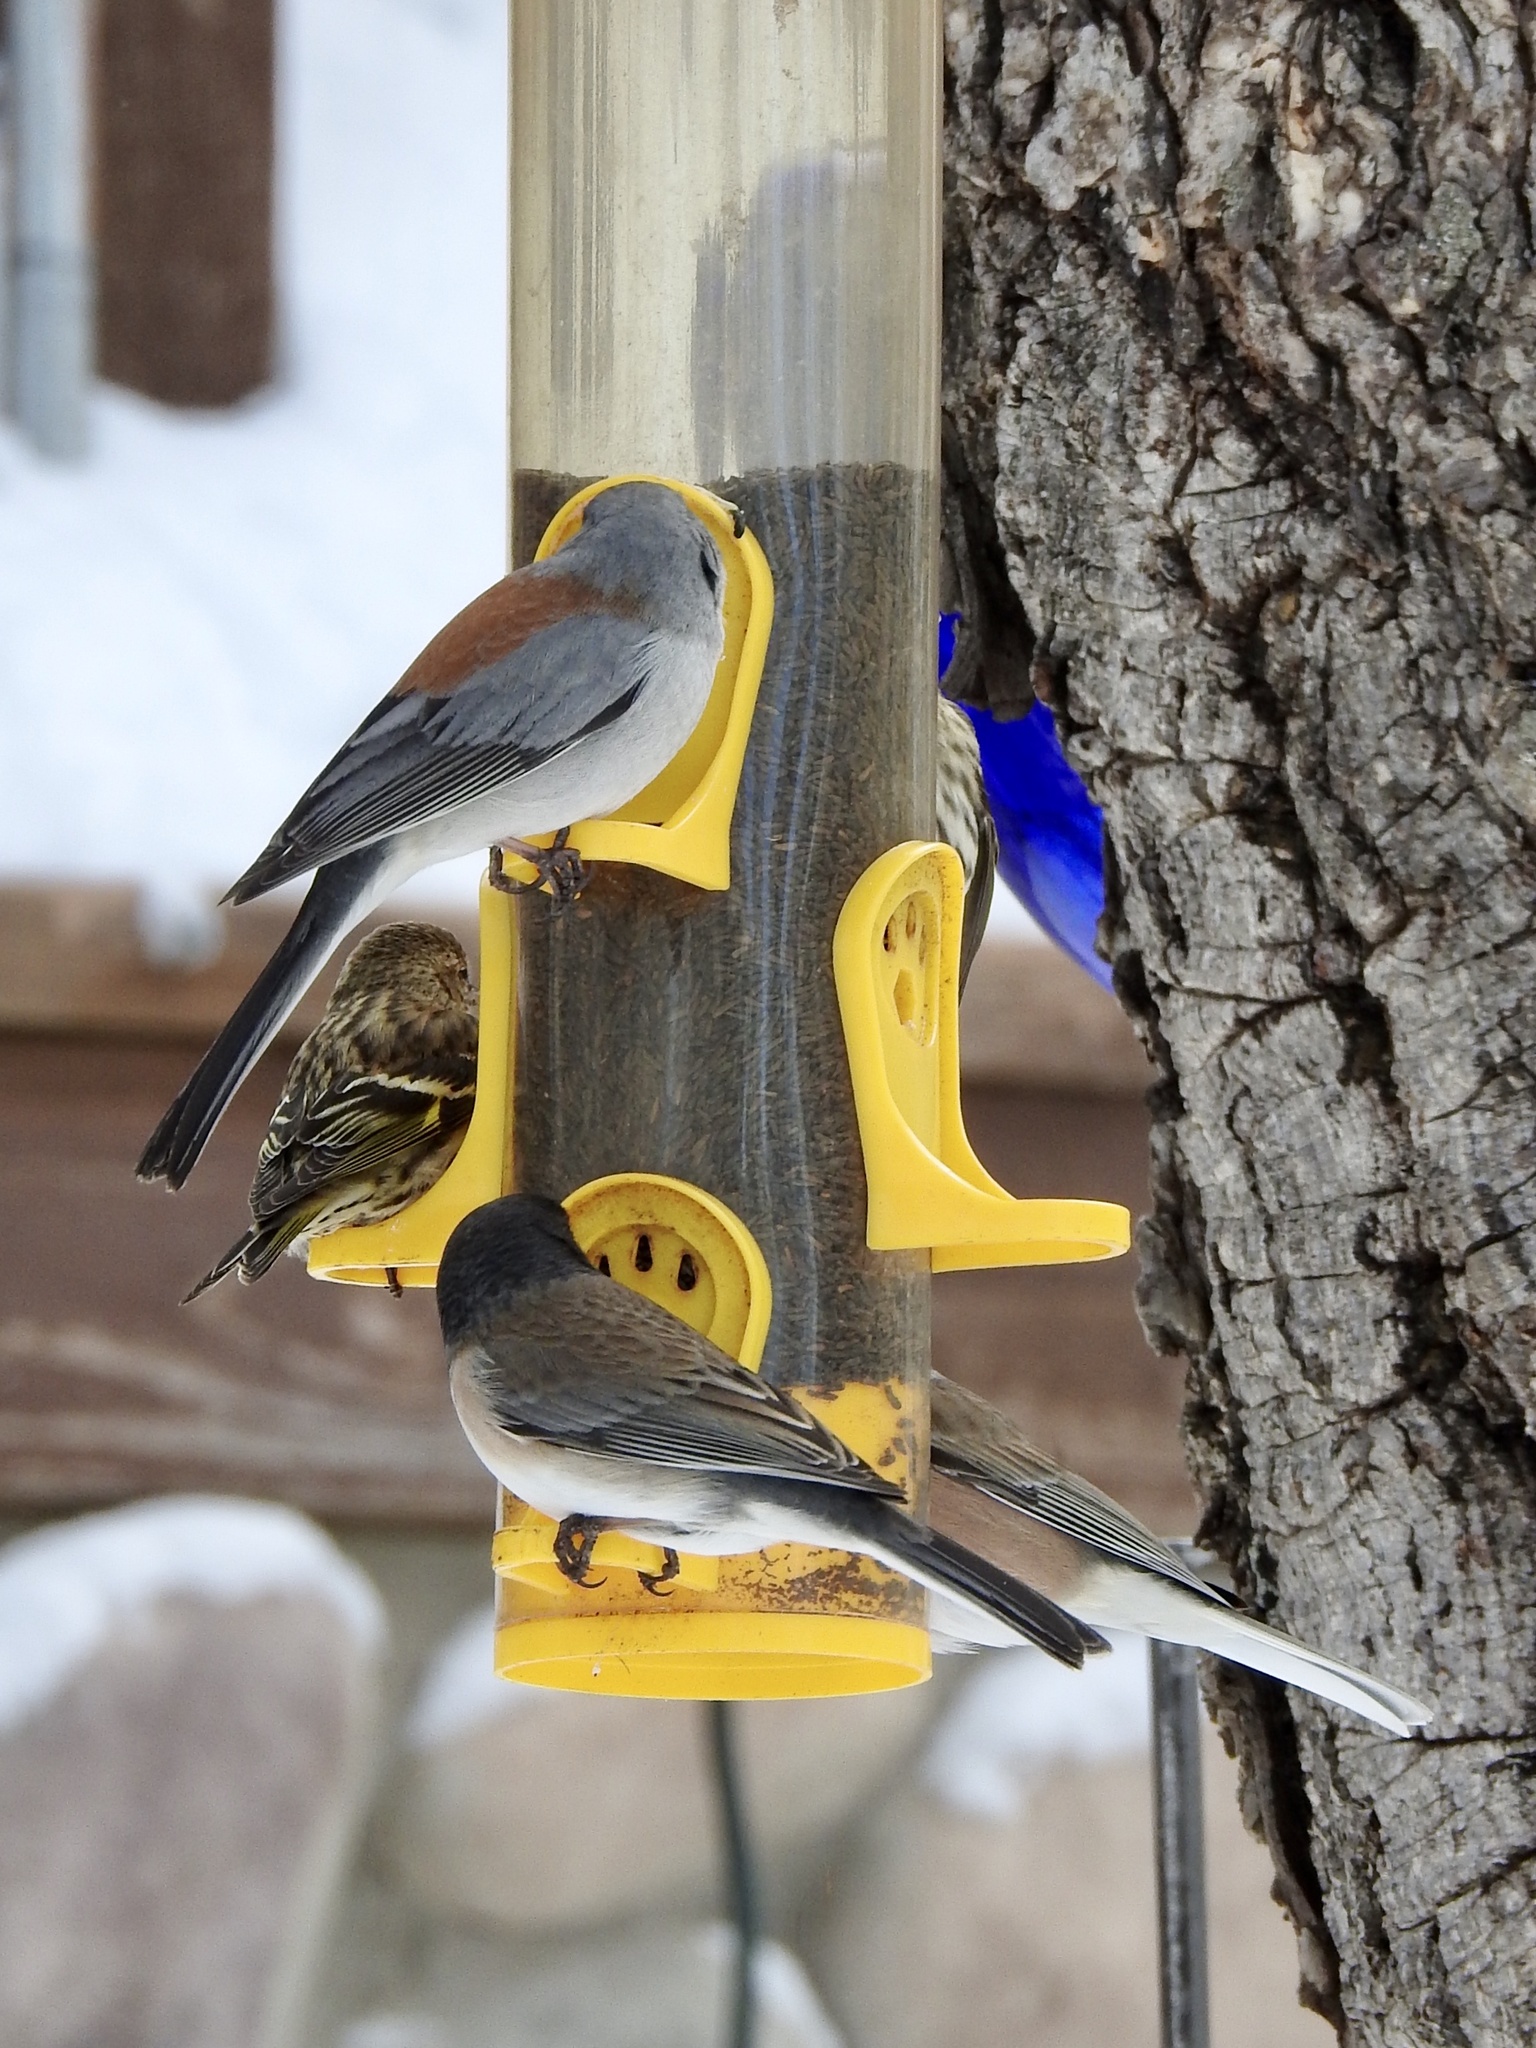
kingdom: Animalia
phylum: Chordata
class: Aves
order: Passeriformes
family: Passerellidae
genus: Junco
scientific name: Junco hyemalis
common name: Dark-eyed junco
